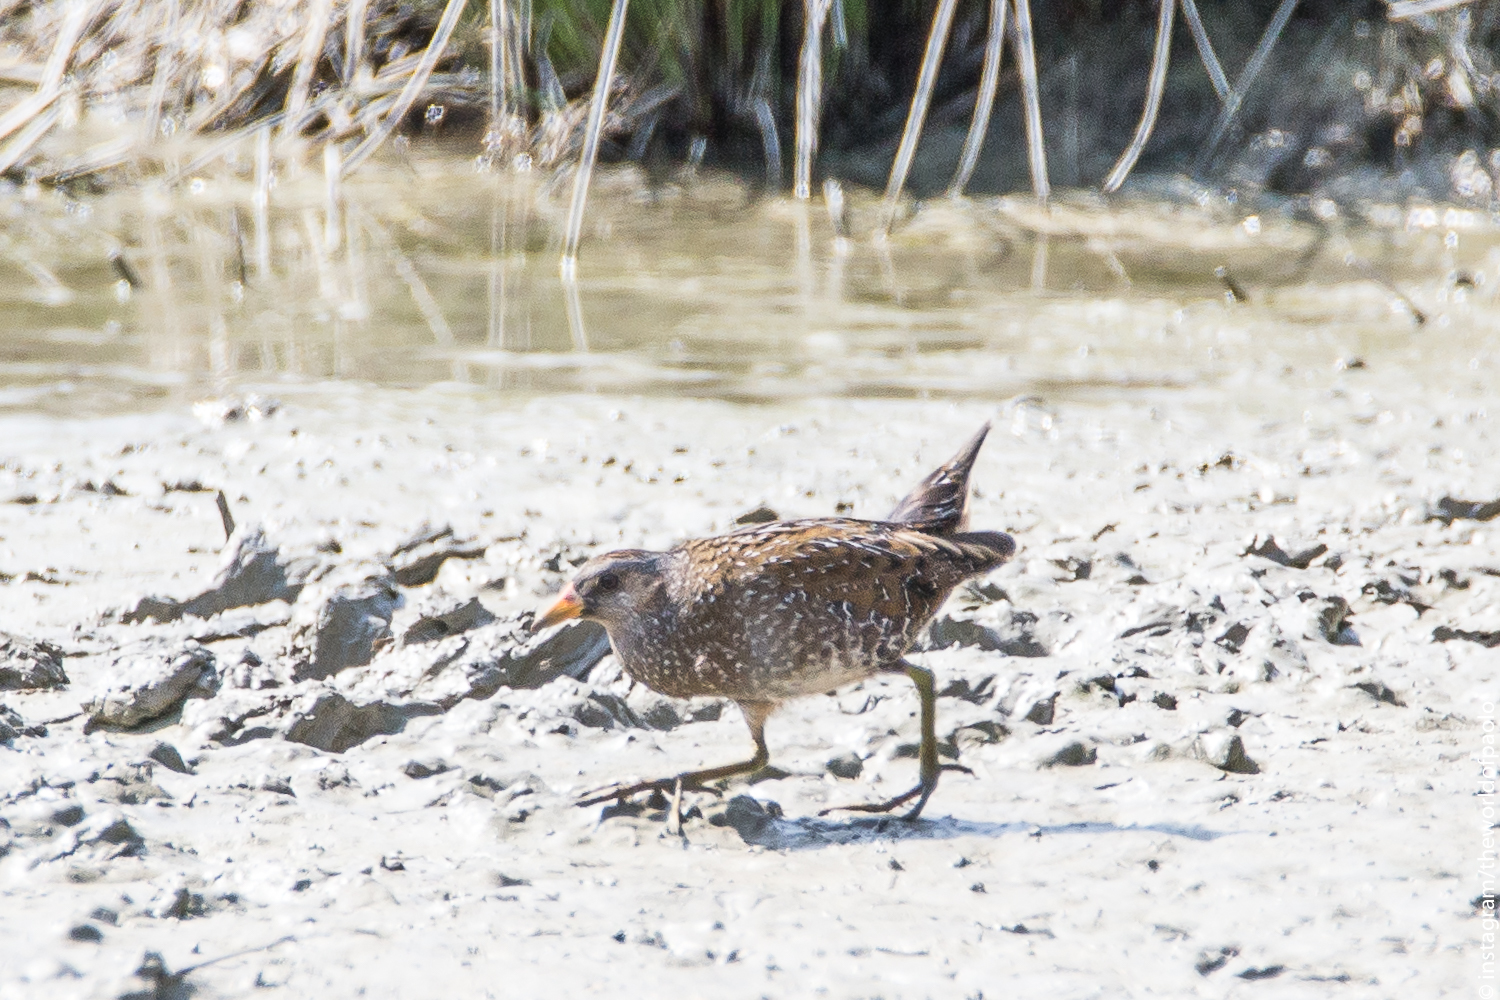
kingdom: Animalia
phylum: Chordata
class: Aves
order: Gruiformes
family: Rallidae
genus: Porzana
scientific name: Porzana porzana
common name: Spotted crake
